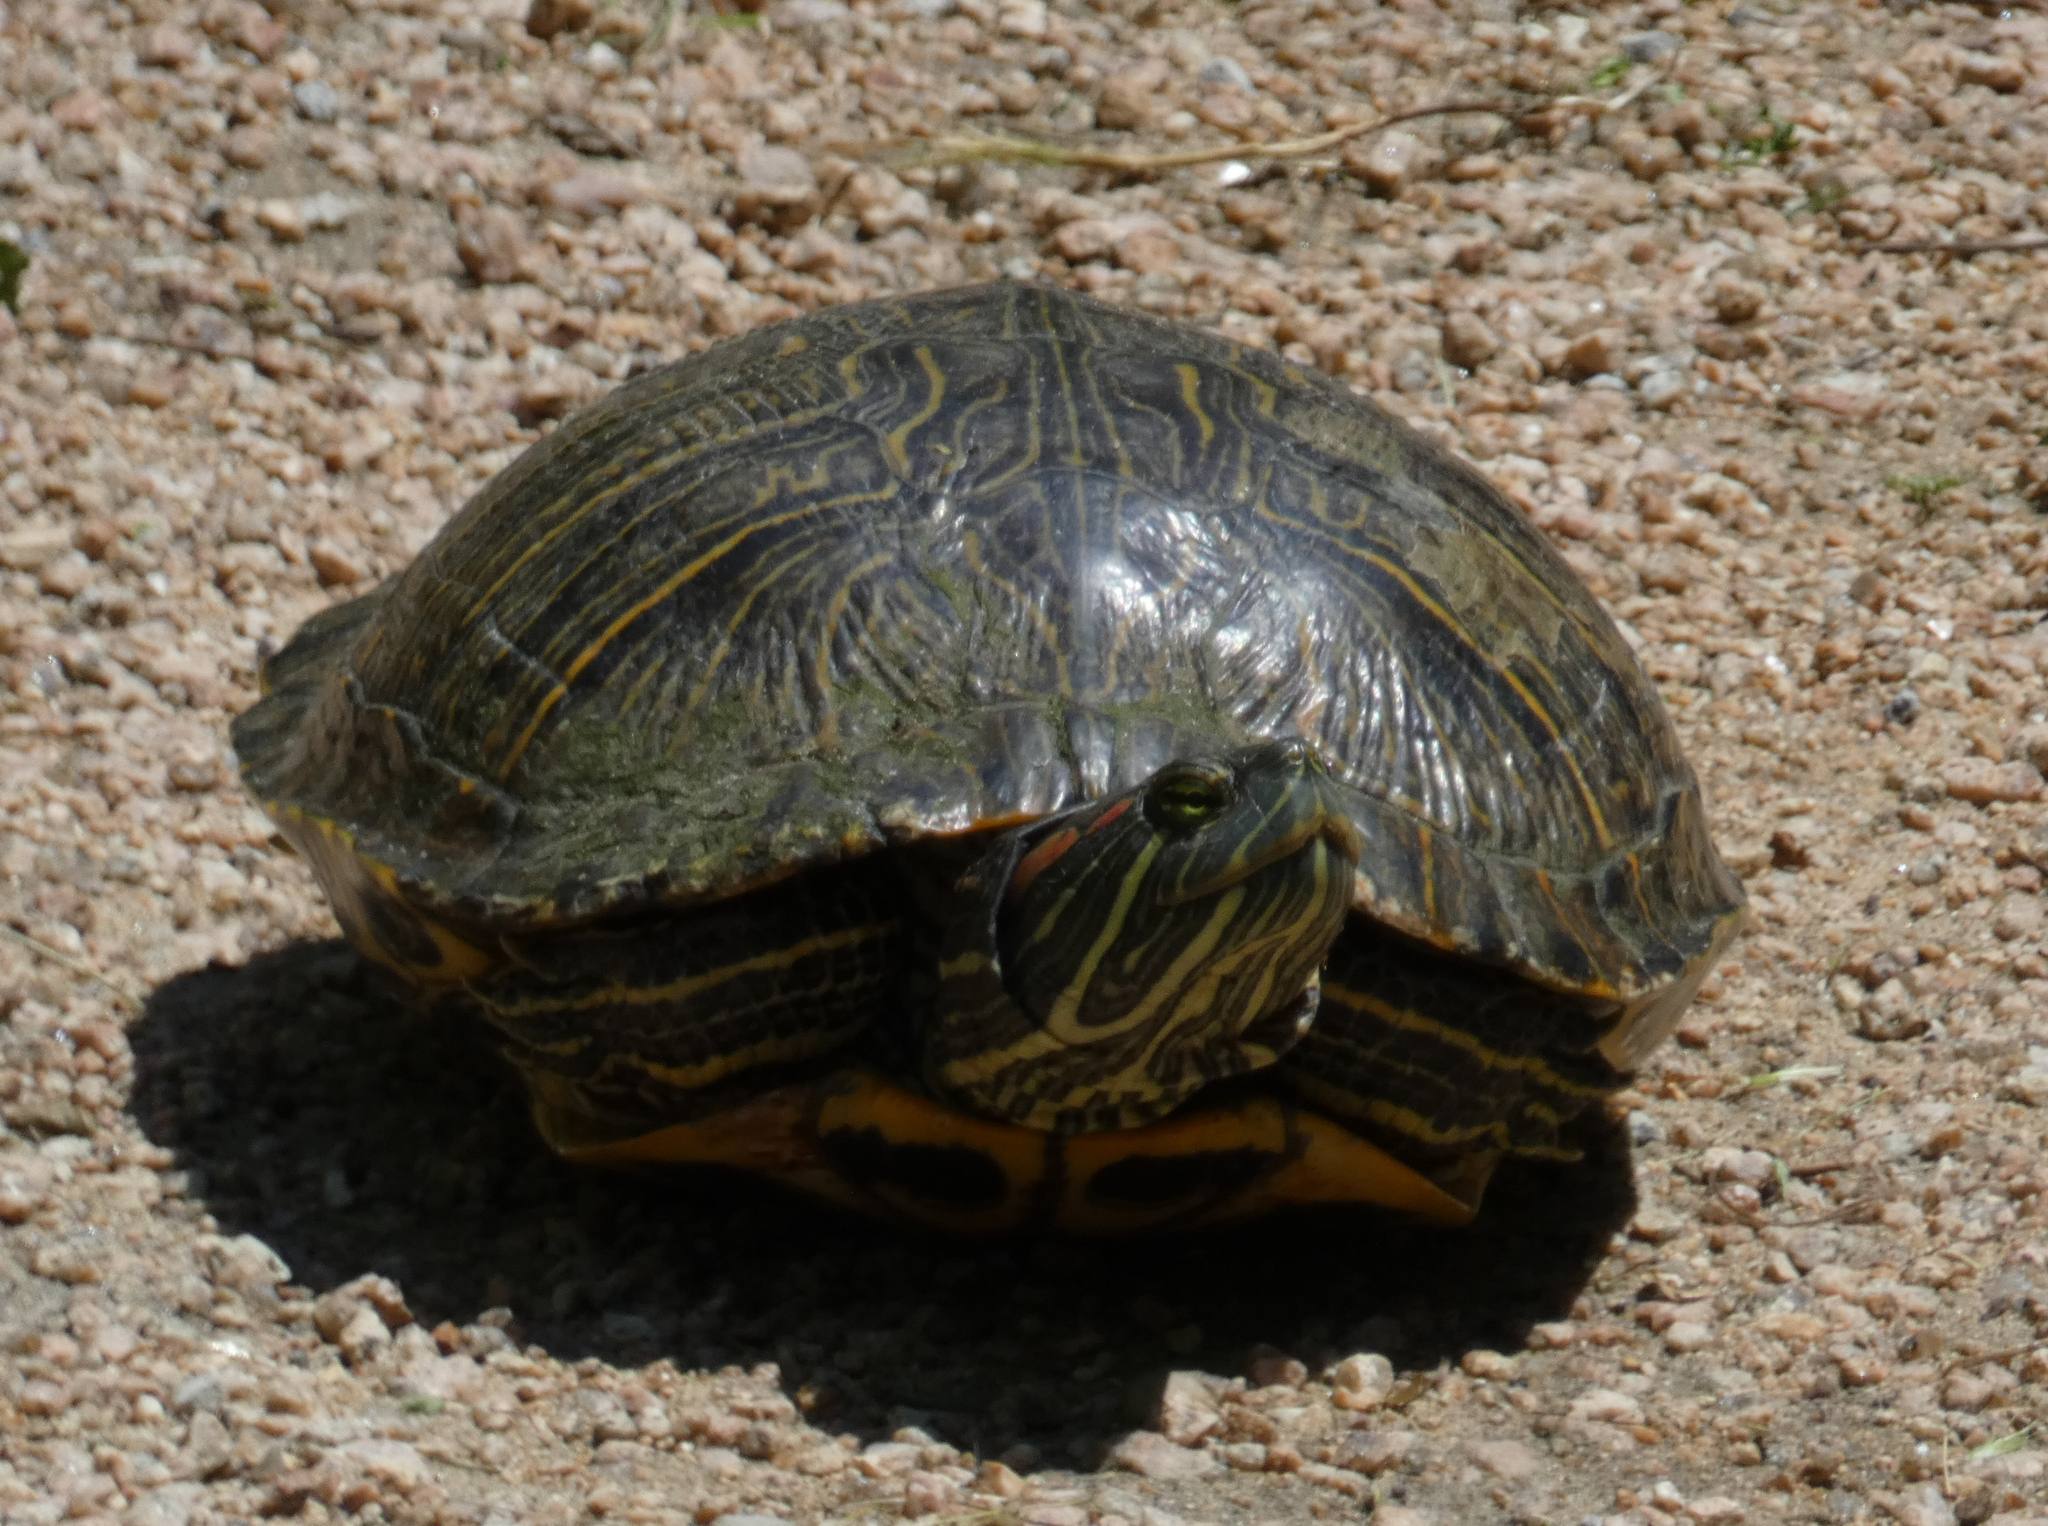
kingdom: Animalia
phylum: Chordata
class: Testudines
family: Emydidae
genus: Trachemys
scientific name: Trachemys scripta
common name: Slider
